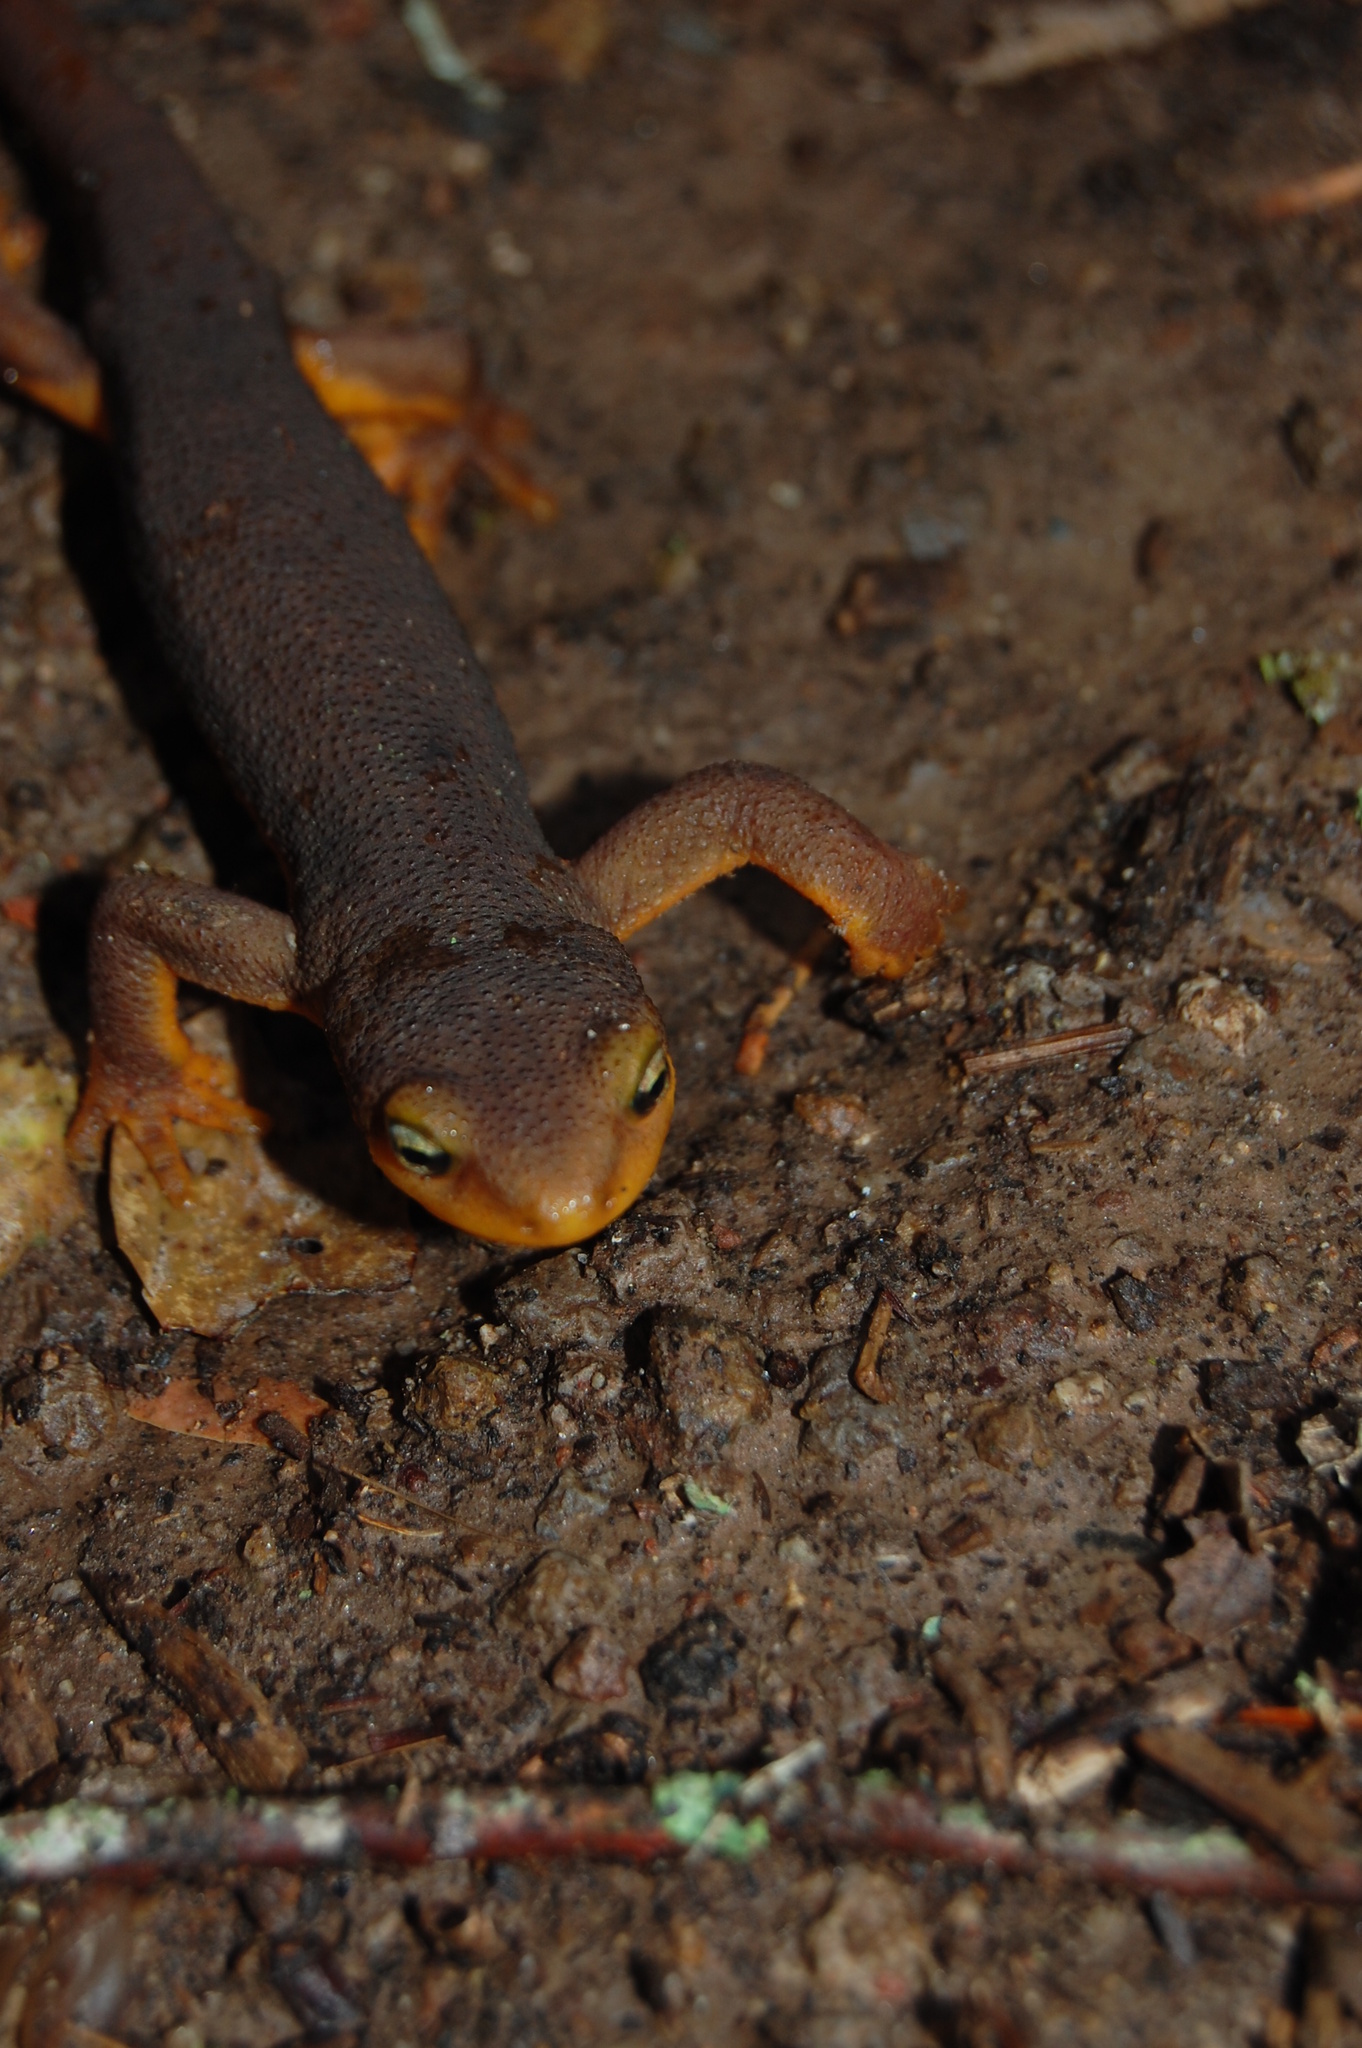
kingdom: Animalia
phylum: Chordata
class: Amphibia
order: Caudata
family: Salamandridae
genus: Taricha
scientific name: Taricha torosa
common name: California newt
